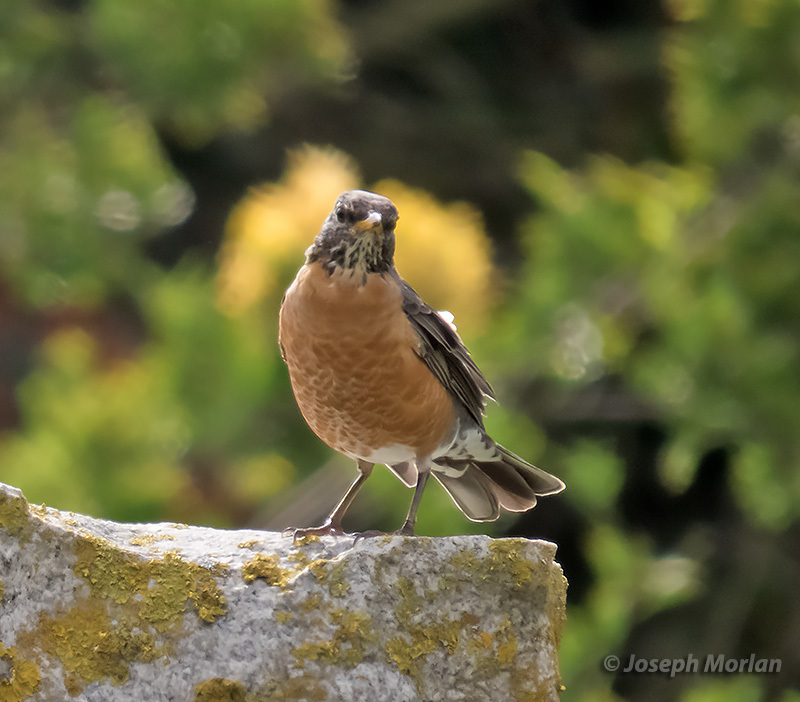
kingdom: Animalia
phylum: Chordata
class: Aves
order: Passeriformes
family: Turdidae
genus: Turdus
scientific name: Turdus migratorius
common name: American robin
